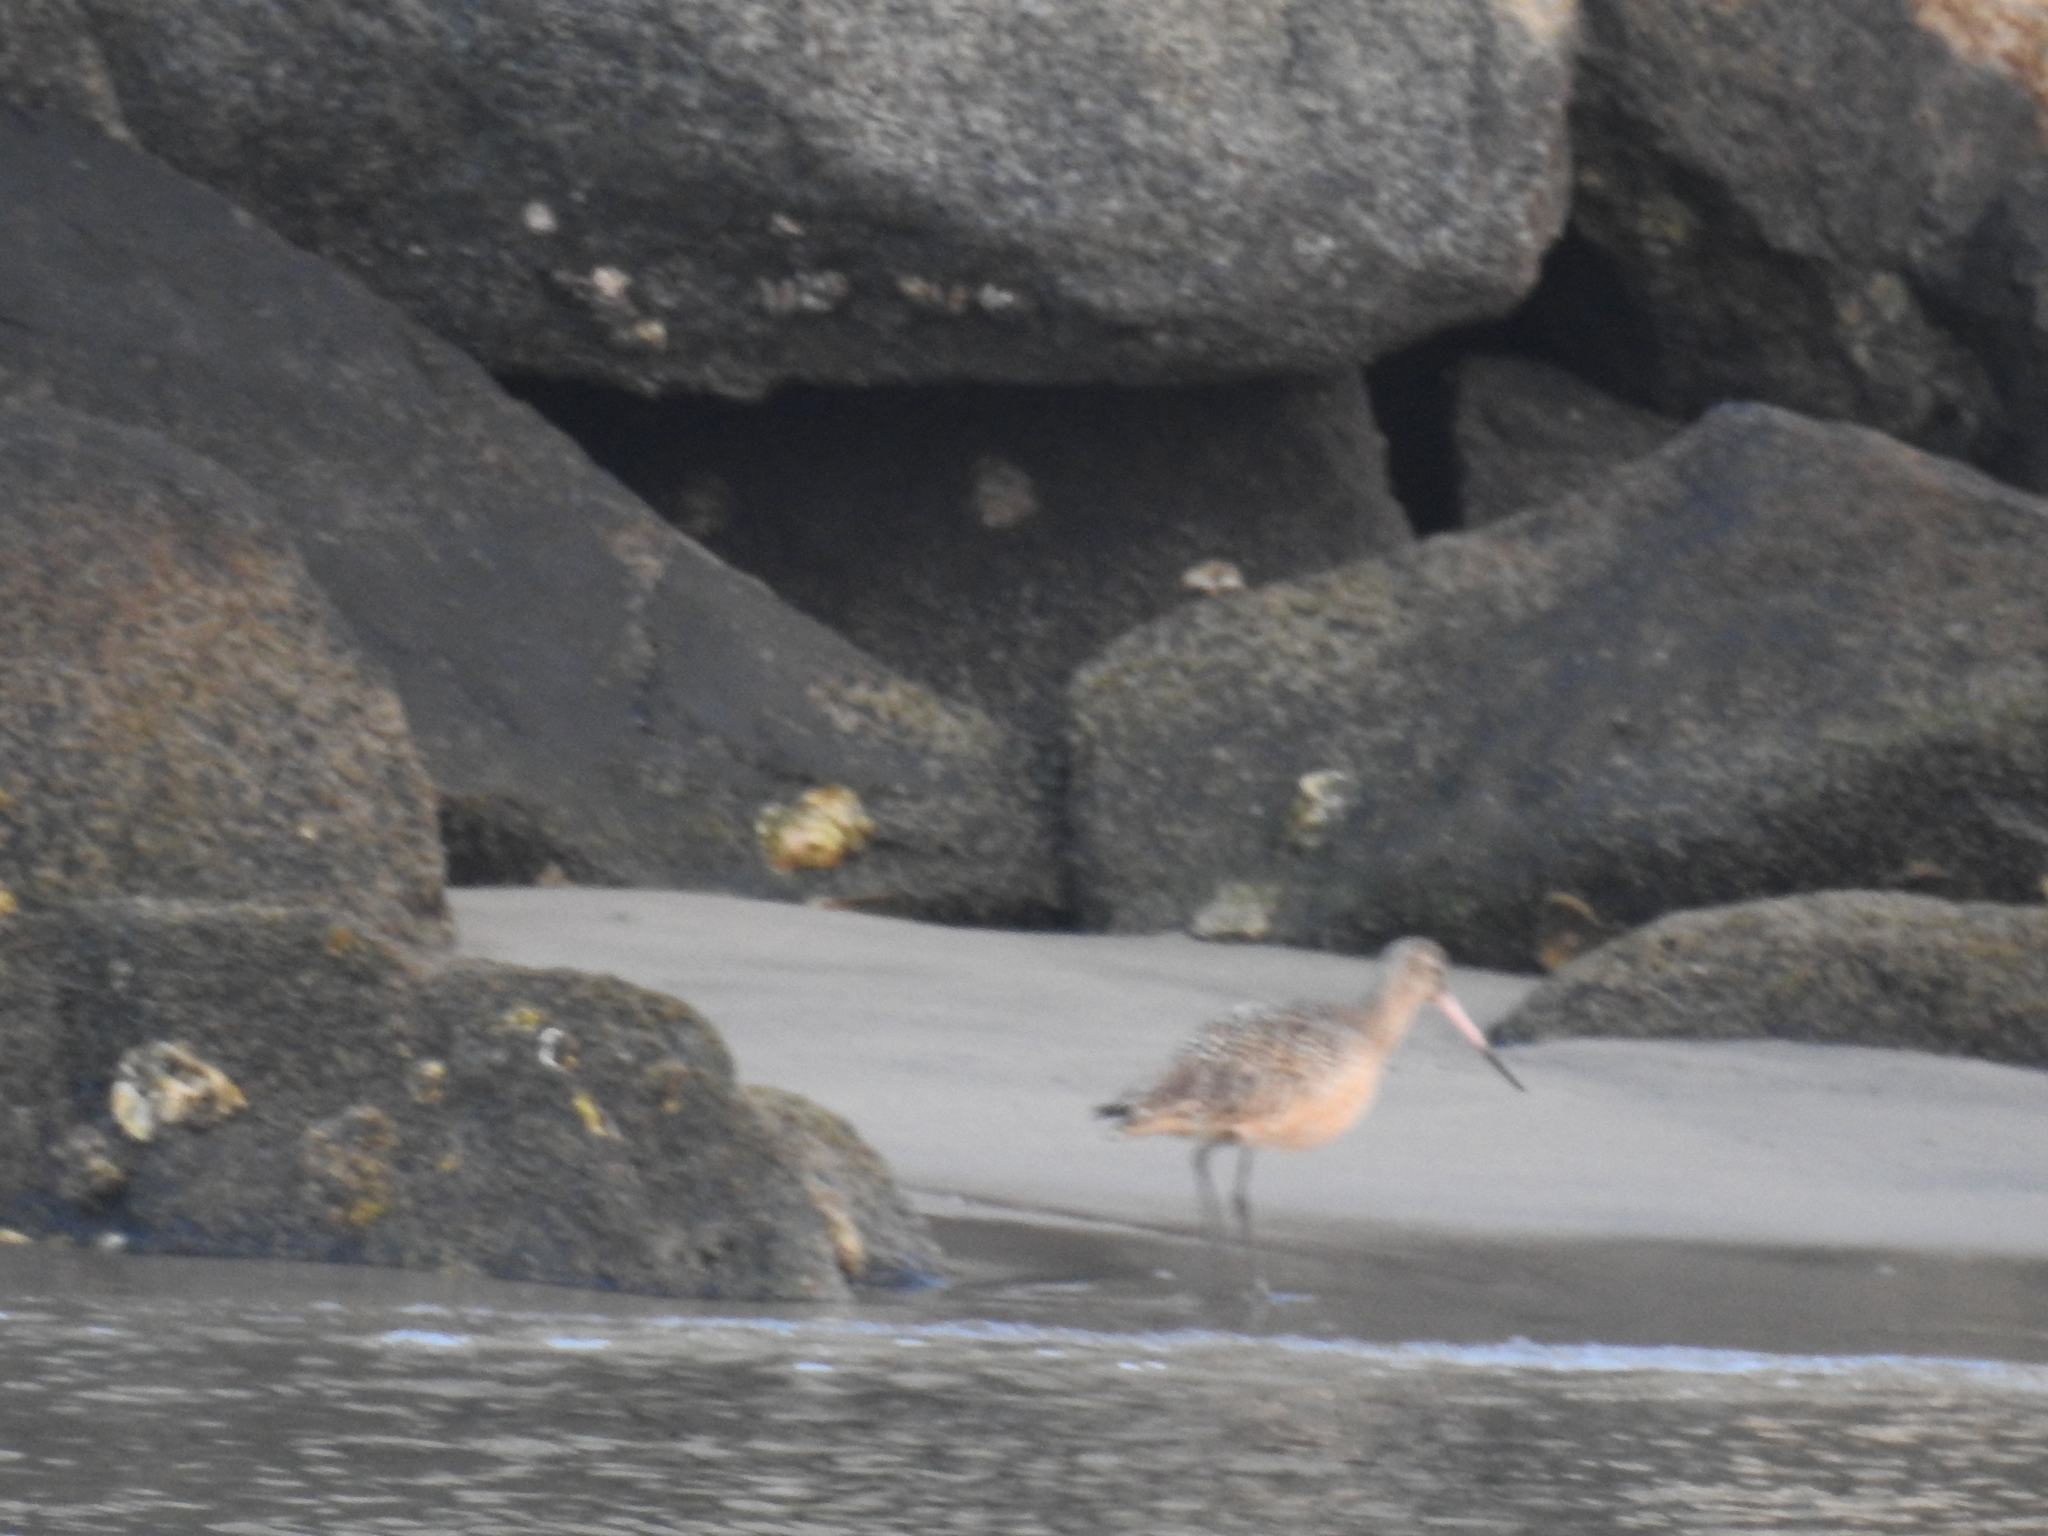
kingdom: Animalia
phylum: Chordata
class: Aves
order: Charadriiformes
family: Scolopacidae
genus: Limosa
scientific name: Limosa fedoa
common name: Marbled godwit
